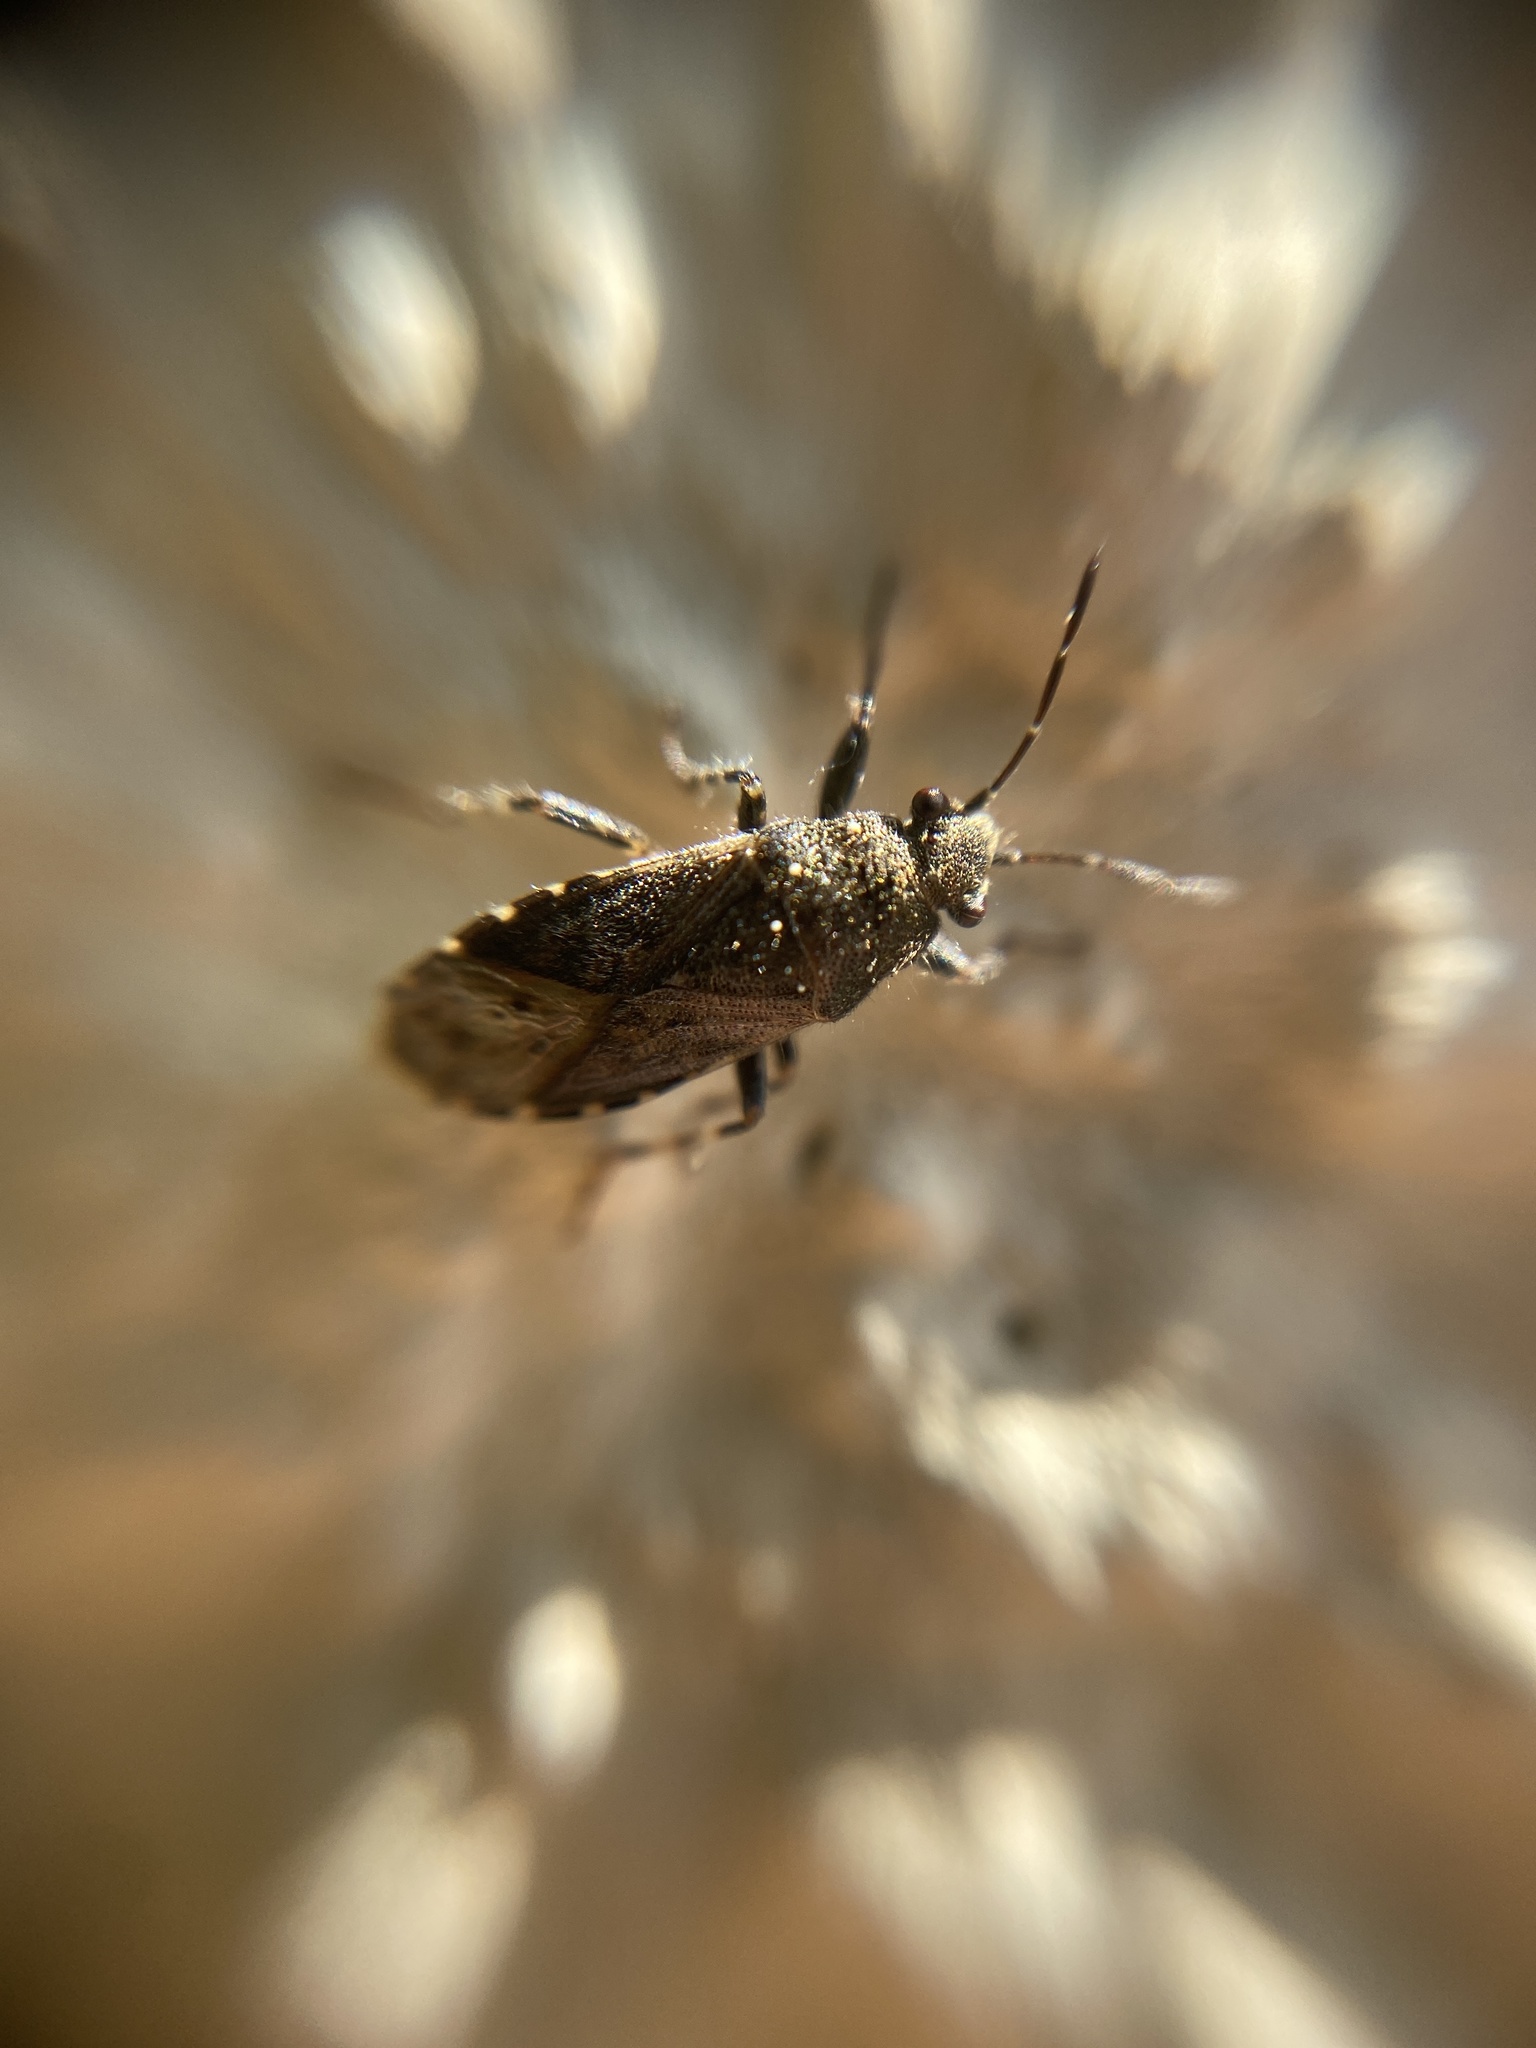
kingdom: Animalia
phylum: Arthropoda
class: Insecta
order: Hemiptera
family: Heterogastridae
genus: Heterogaster
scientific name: Heterogaster urticae
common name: Seed bug
